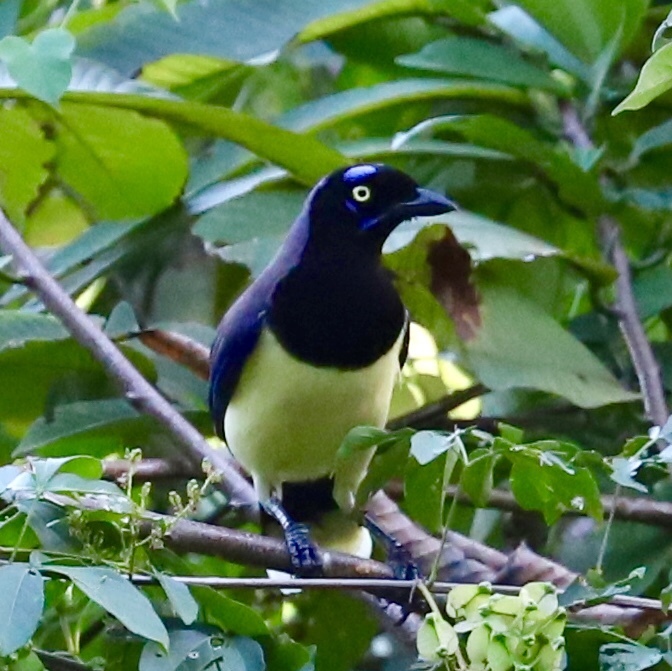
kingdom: Animalia
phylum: Chordata
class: Aves
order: Passeriformes
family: Corvidae
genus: Cyanocorax
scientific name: Cyanocorax affinis
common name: Black-chested jay
